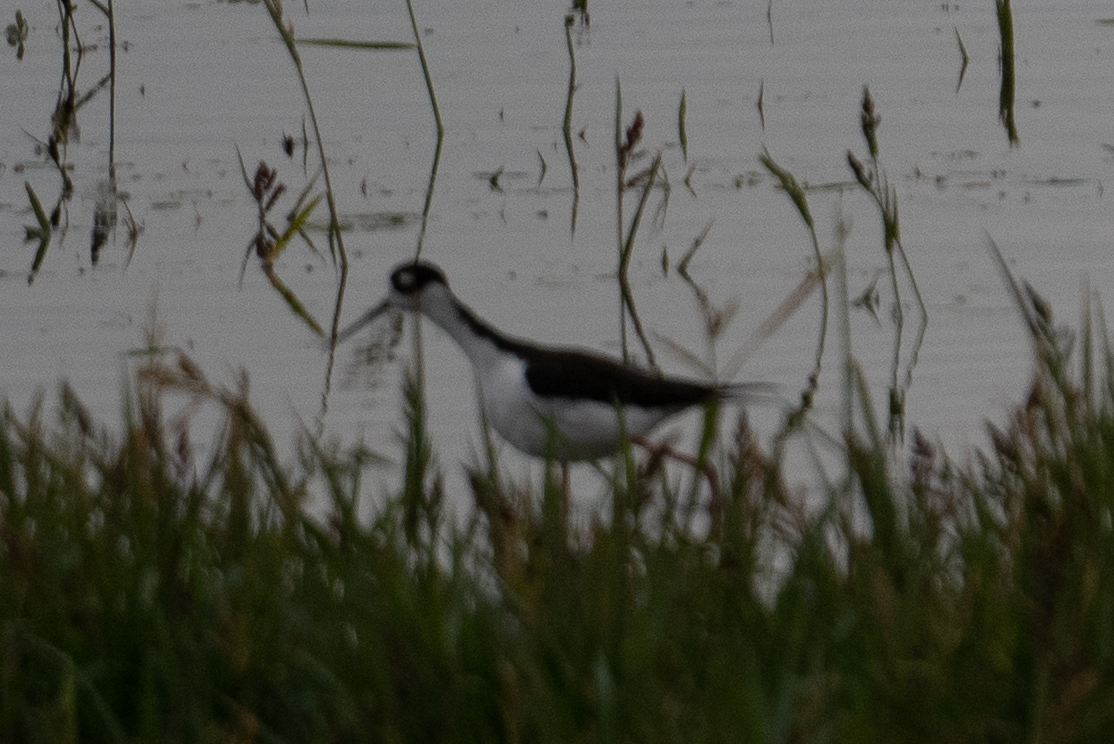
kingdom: Animalia
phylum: Chordata
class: Aves
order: Charadriiformes
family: Recurvirostridae
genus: Himantopus
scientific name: Himantopus mexicanus
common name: Black-necked stilt
